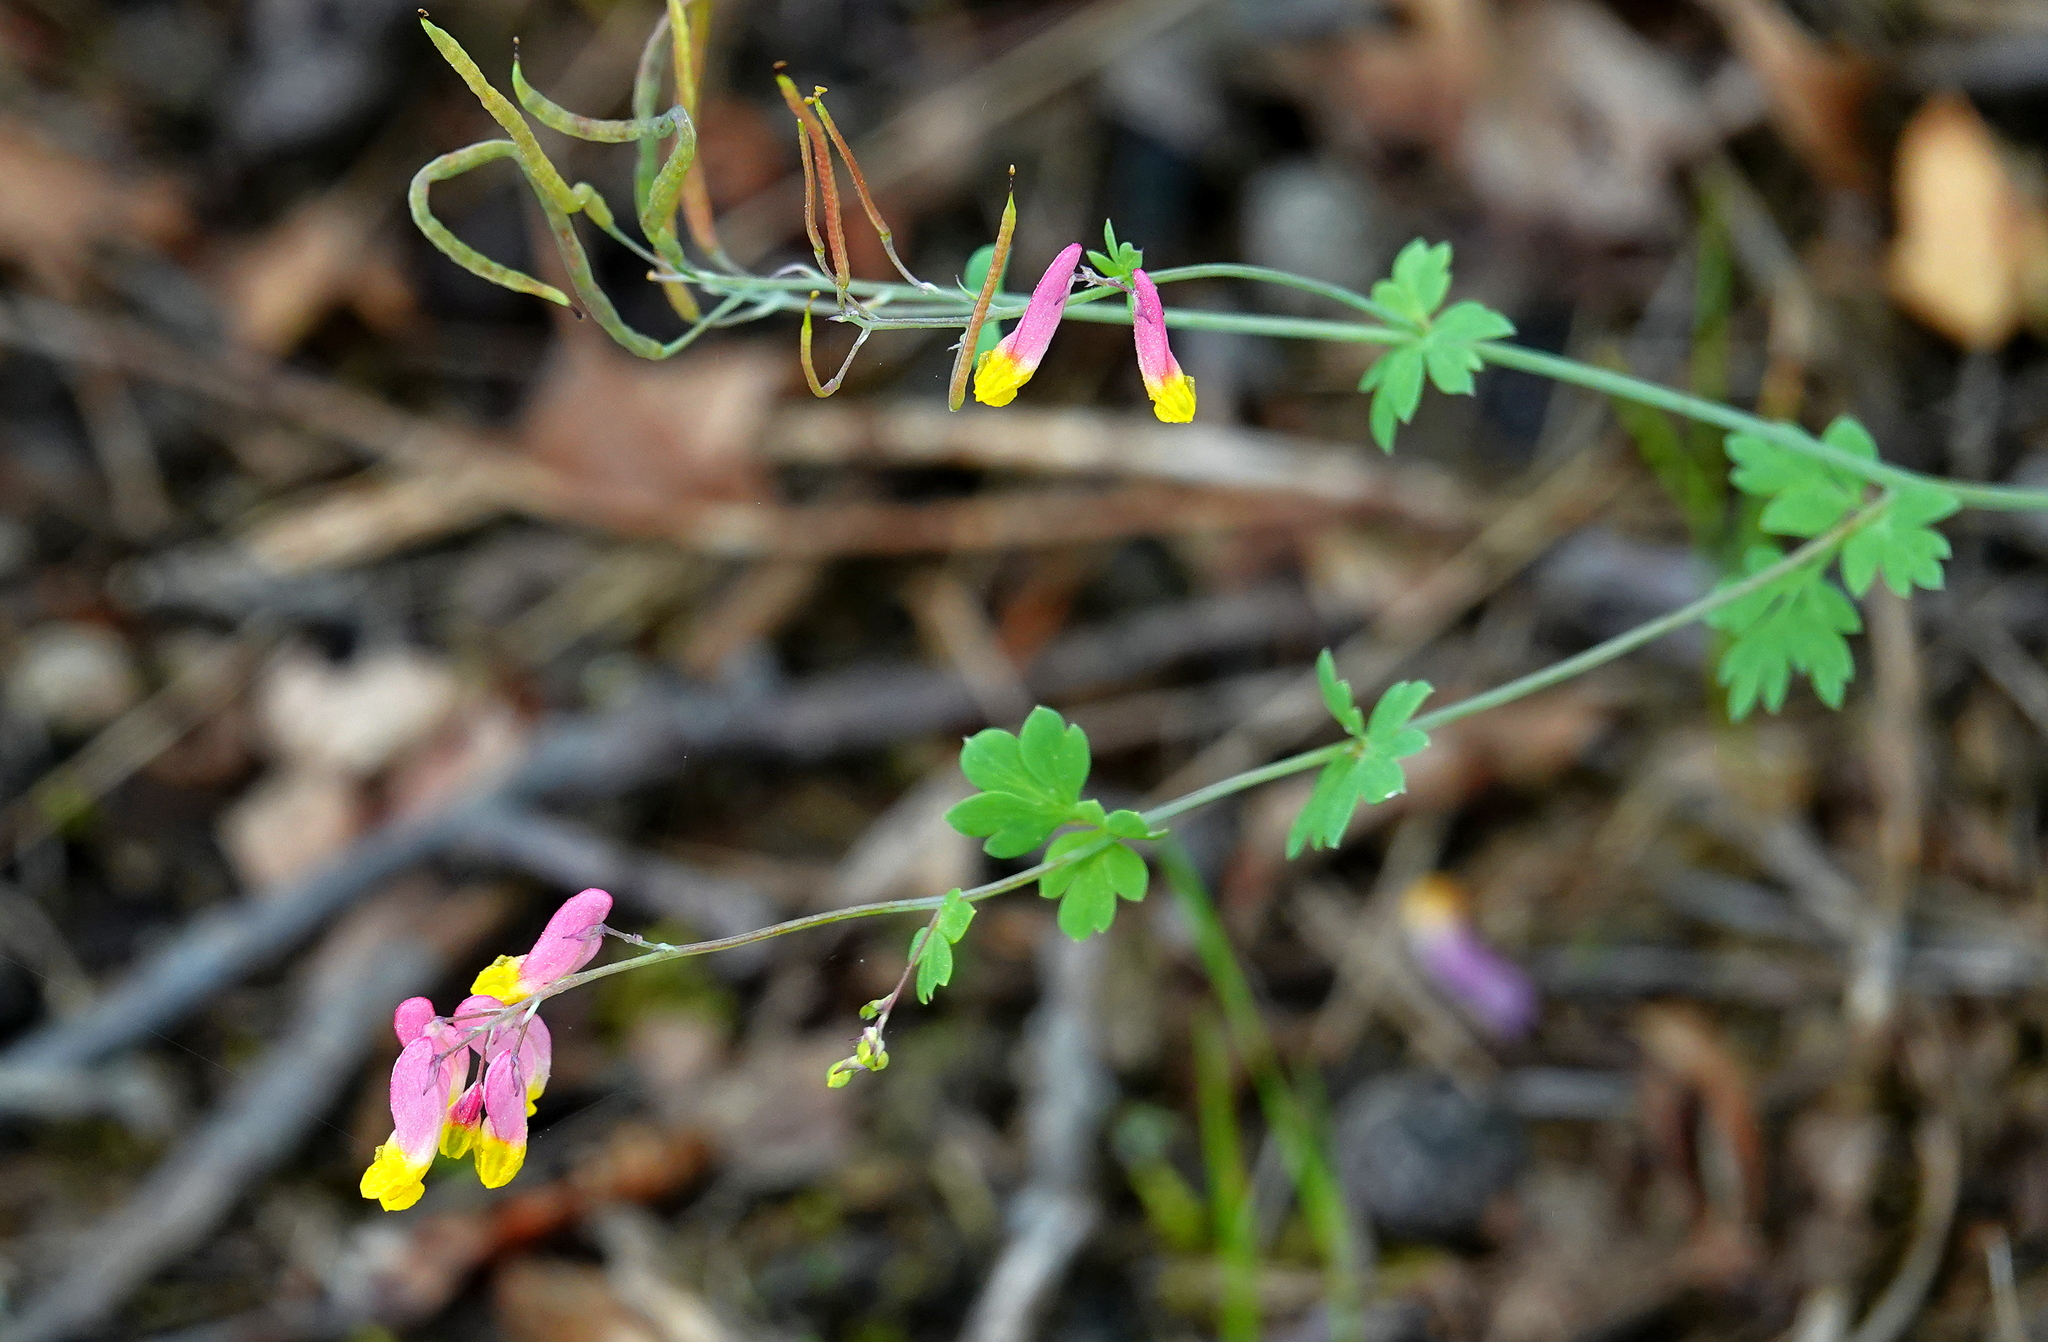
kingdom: Plantae
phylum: Tracheophyta
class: Magnoliopsida
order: Ranunculales
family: Papaveraceae
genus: Capnoides
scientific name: Capnoides sempervirens
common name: Rock harlequin
